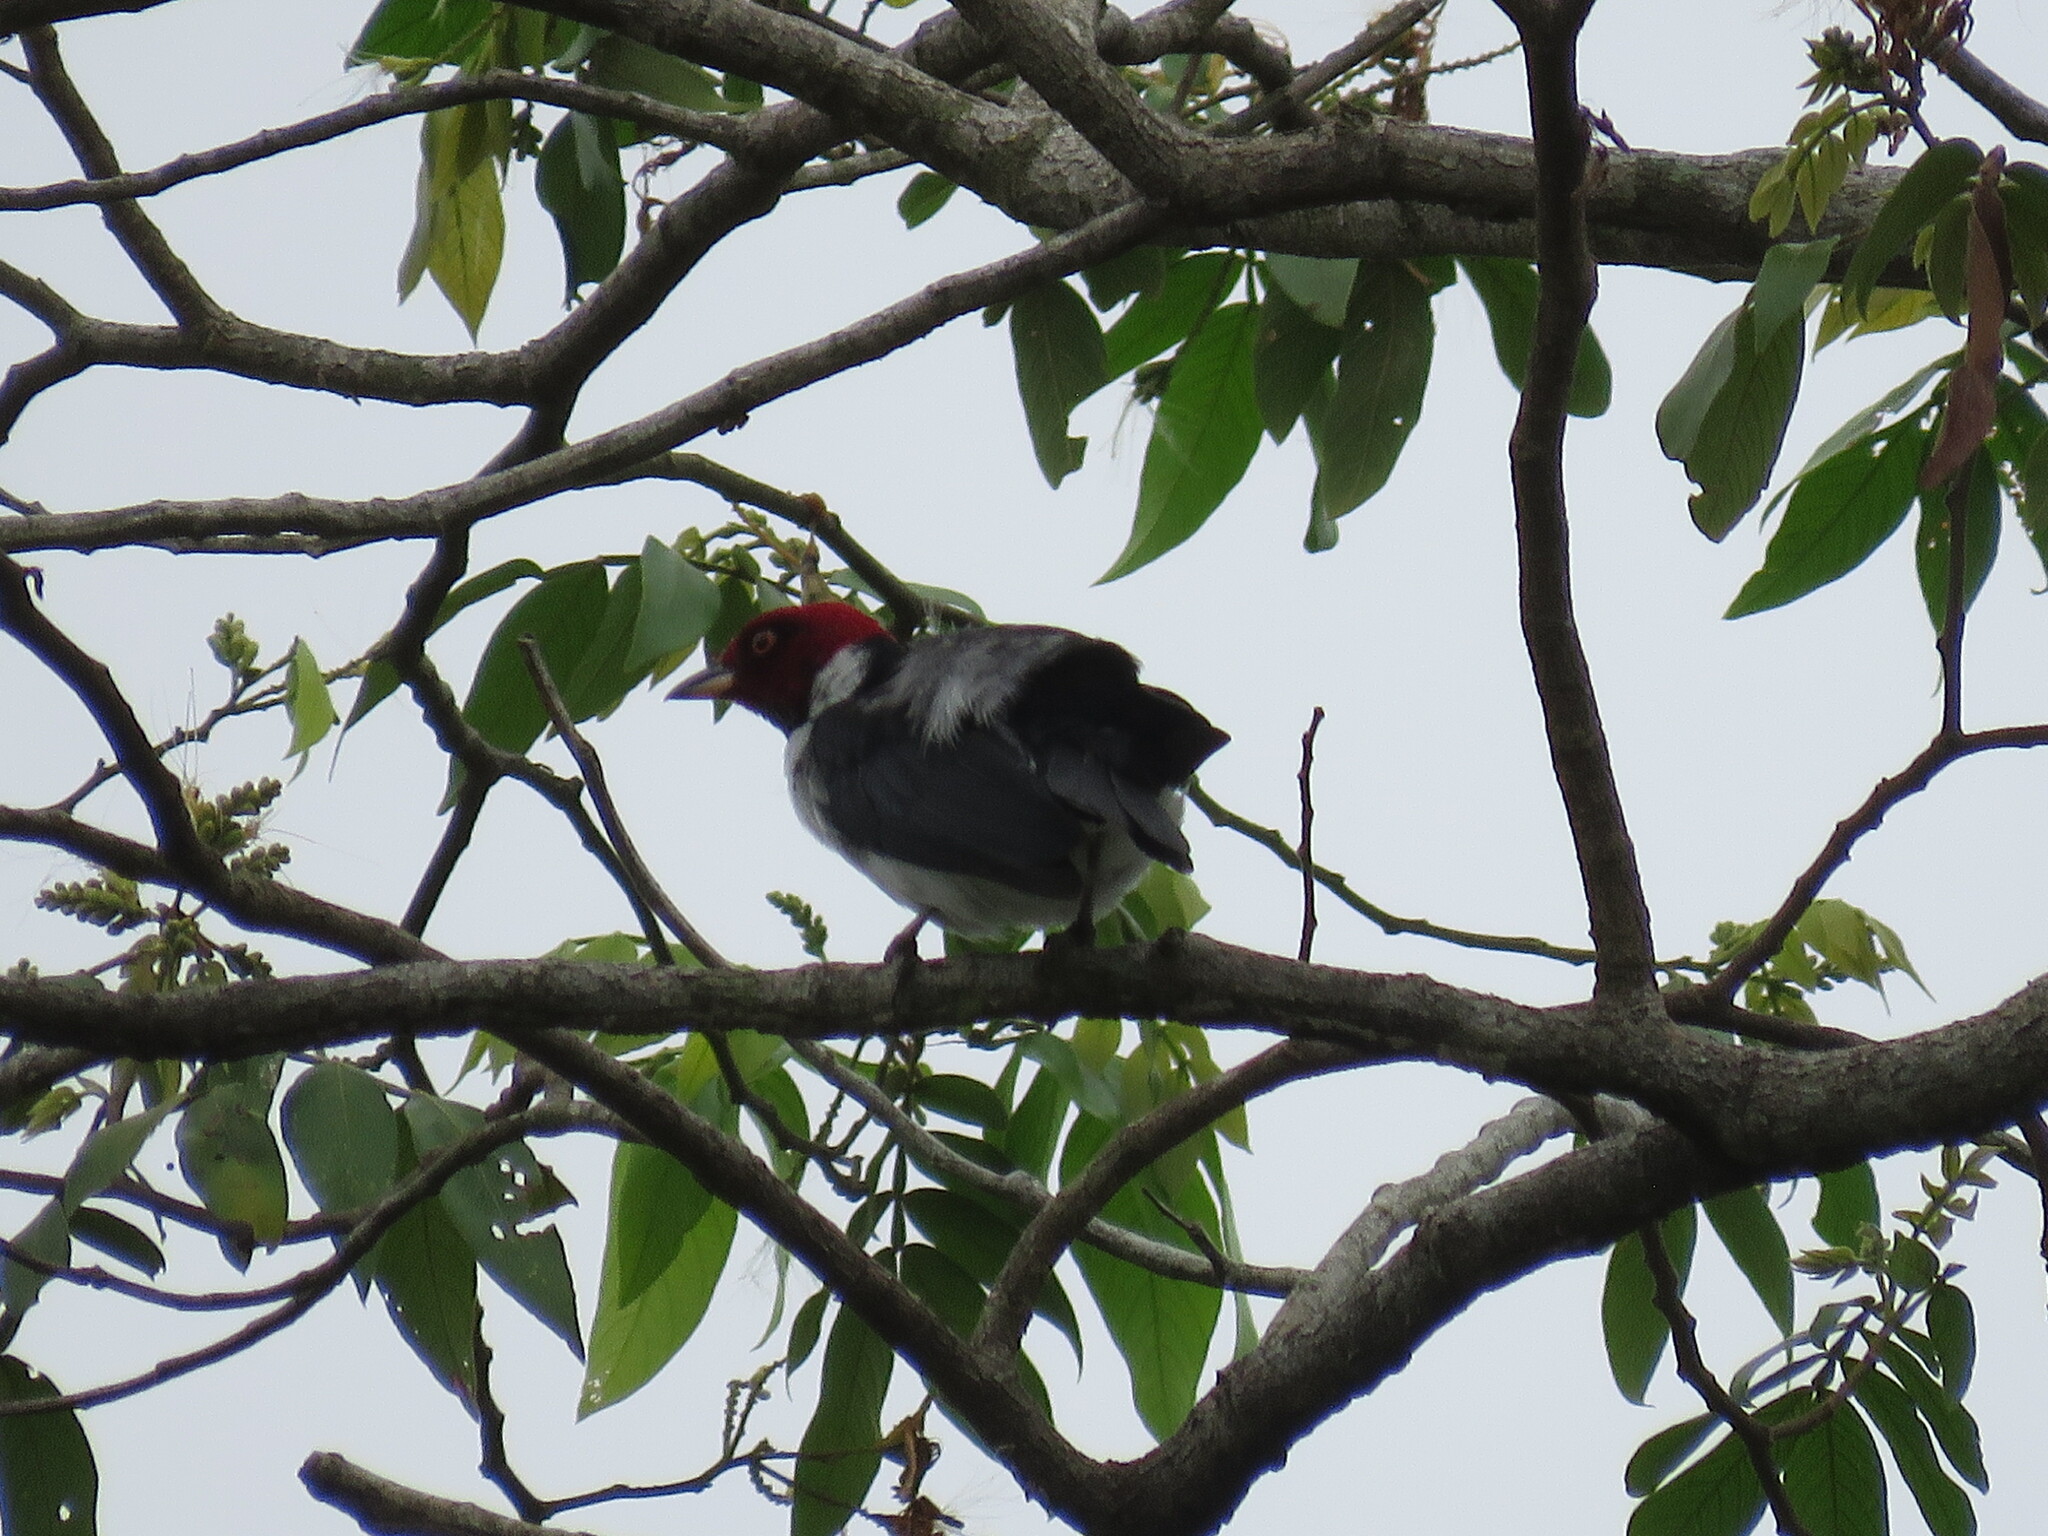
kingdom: Animalia
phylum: Chordata
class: Aves
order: Passeriformes
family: Thraupidae
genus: Paroaria
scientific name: Paroaria gularis
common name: Red-capped cardinal
